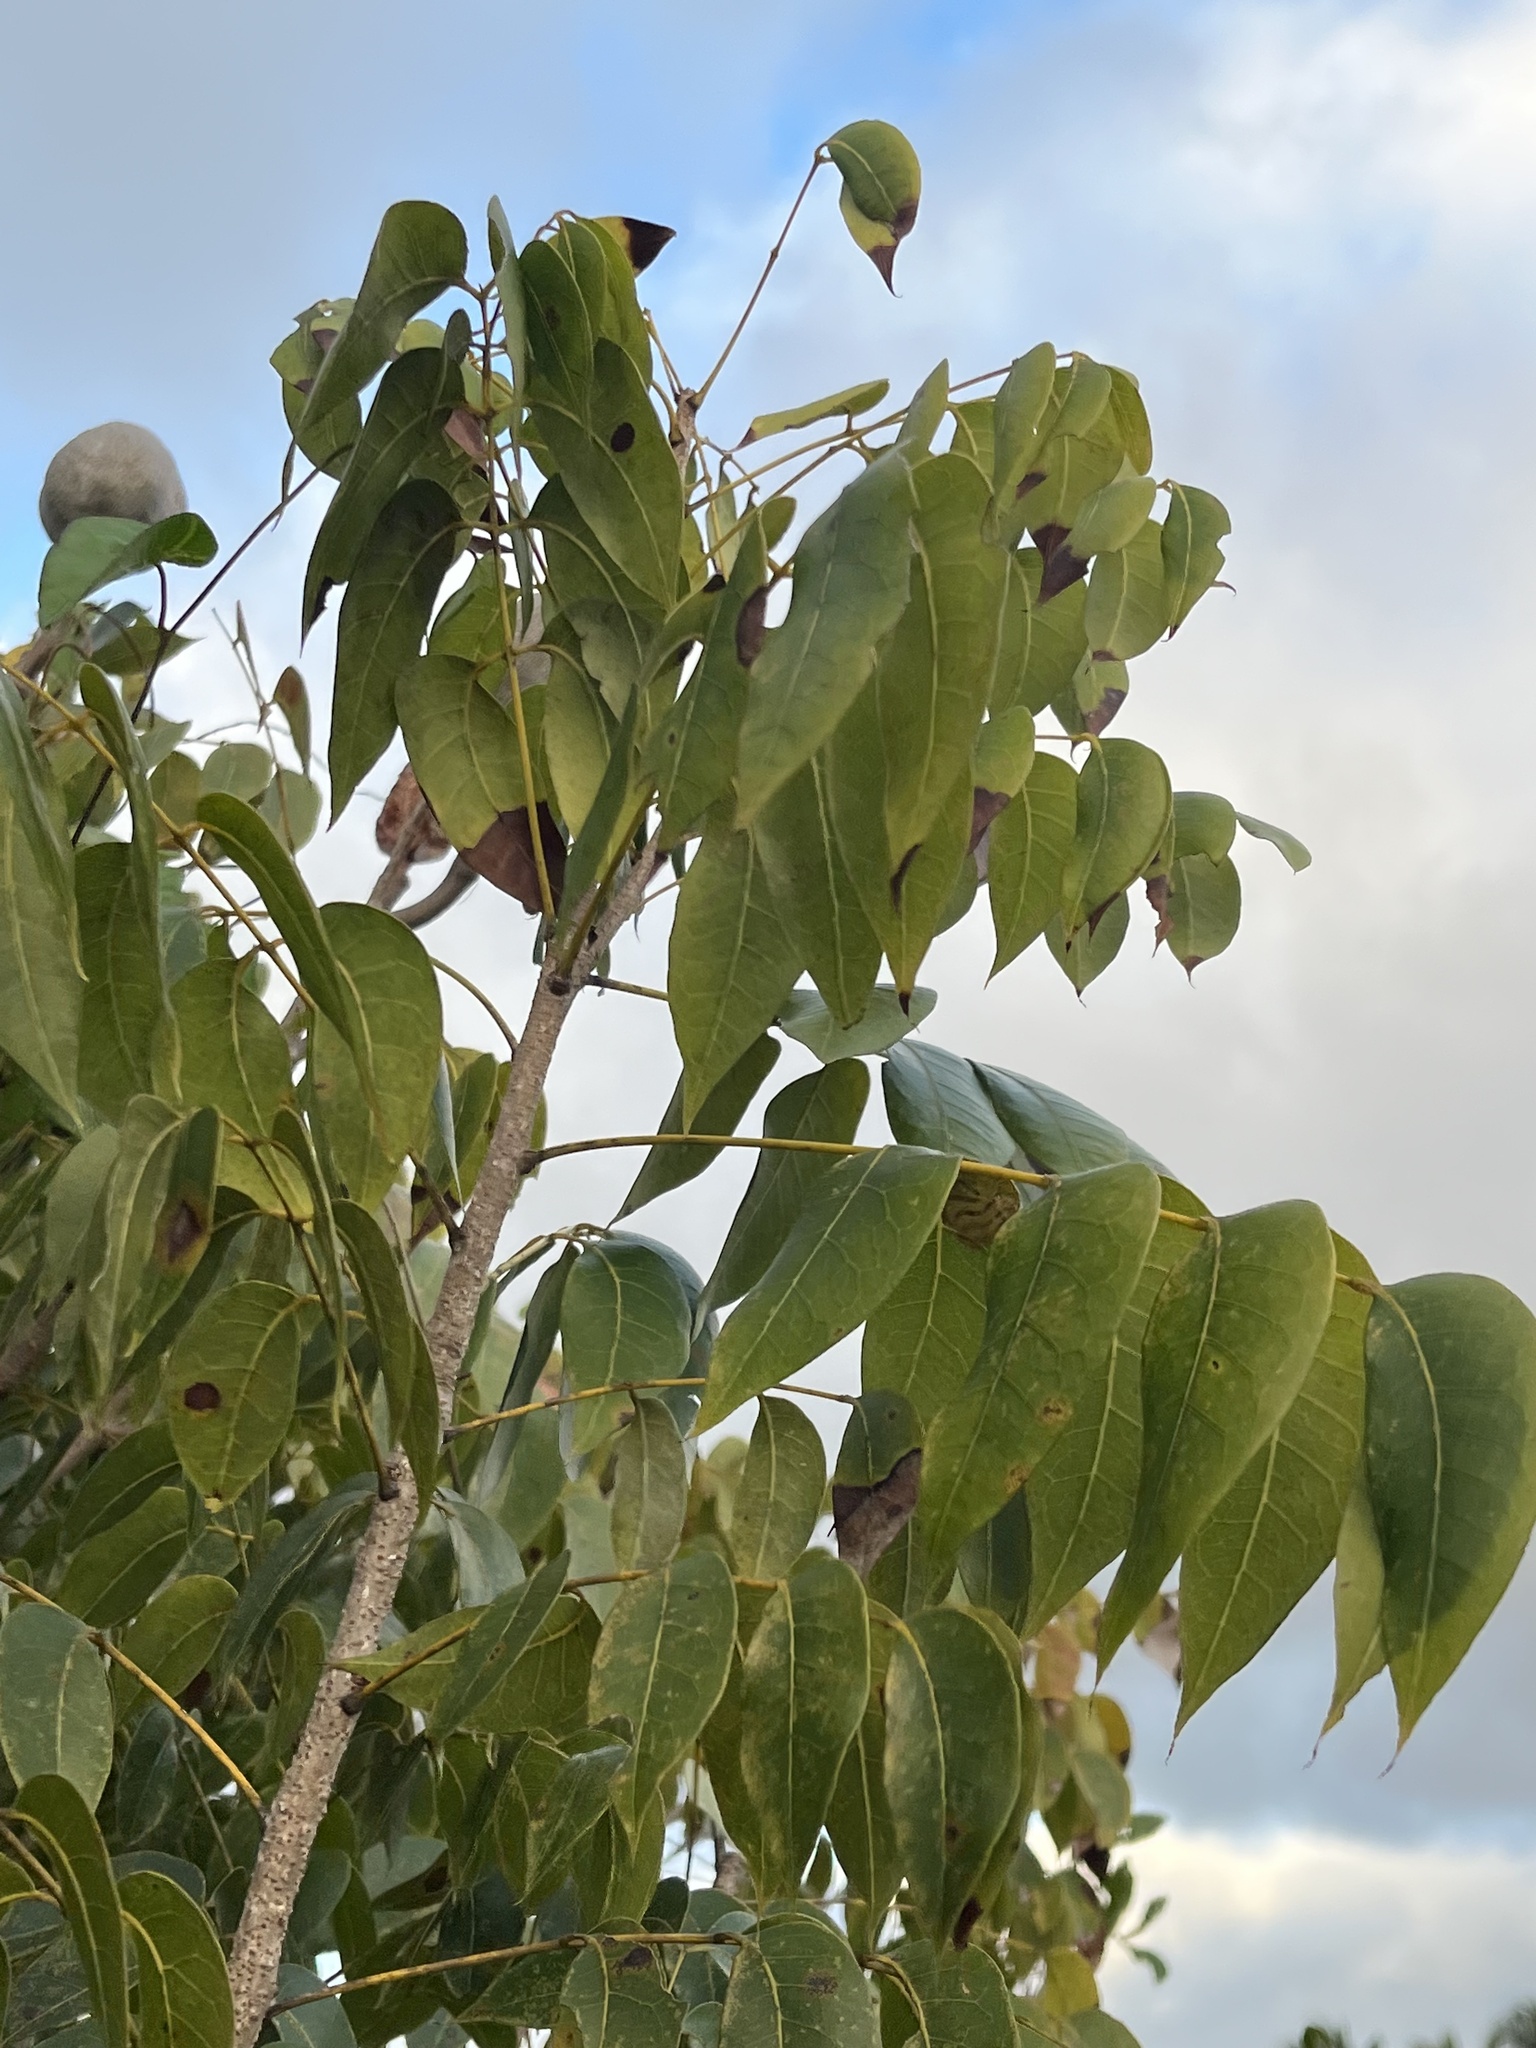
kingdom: Animalia
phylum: Arthropoda
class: Insecta
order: Lepidoptera
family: Gracillariidae
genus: Phyllocnistis
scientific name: Phyllocnistis meliacella
